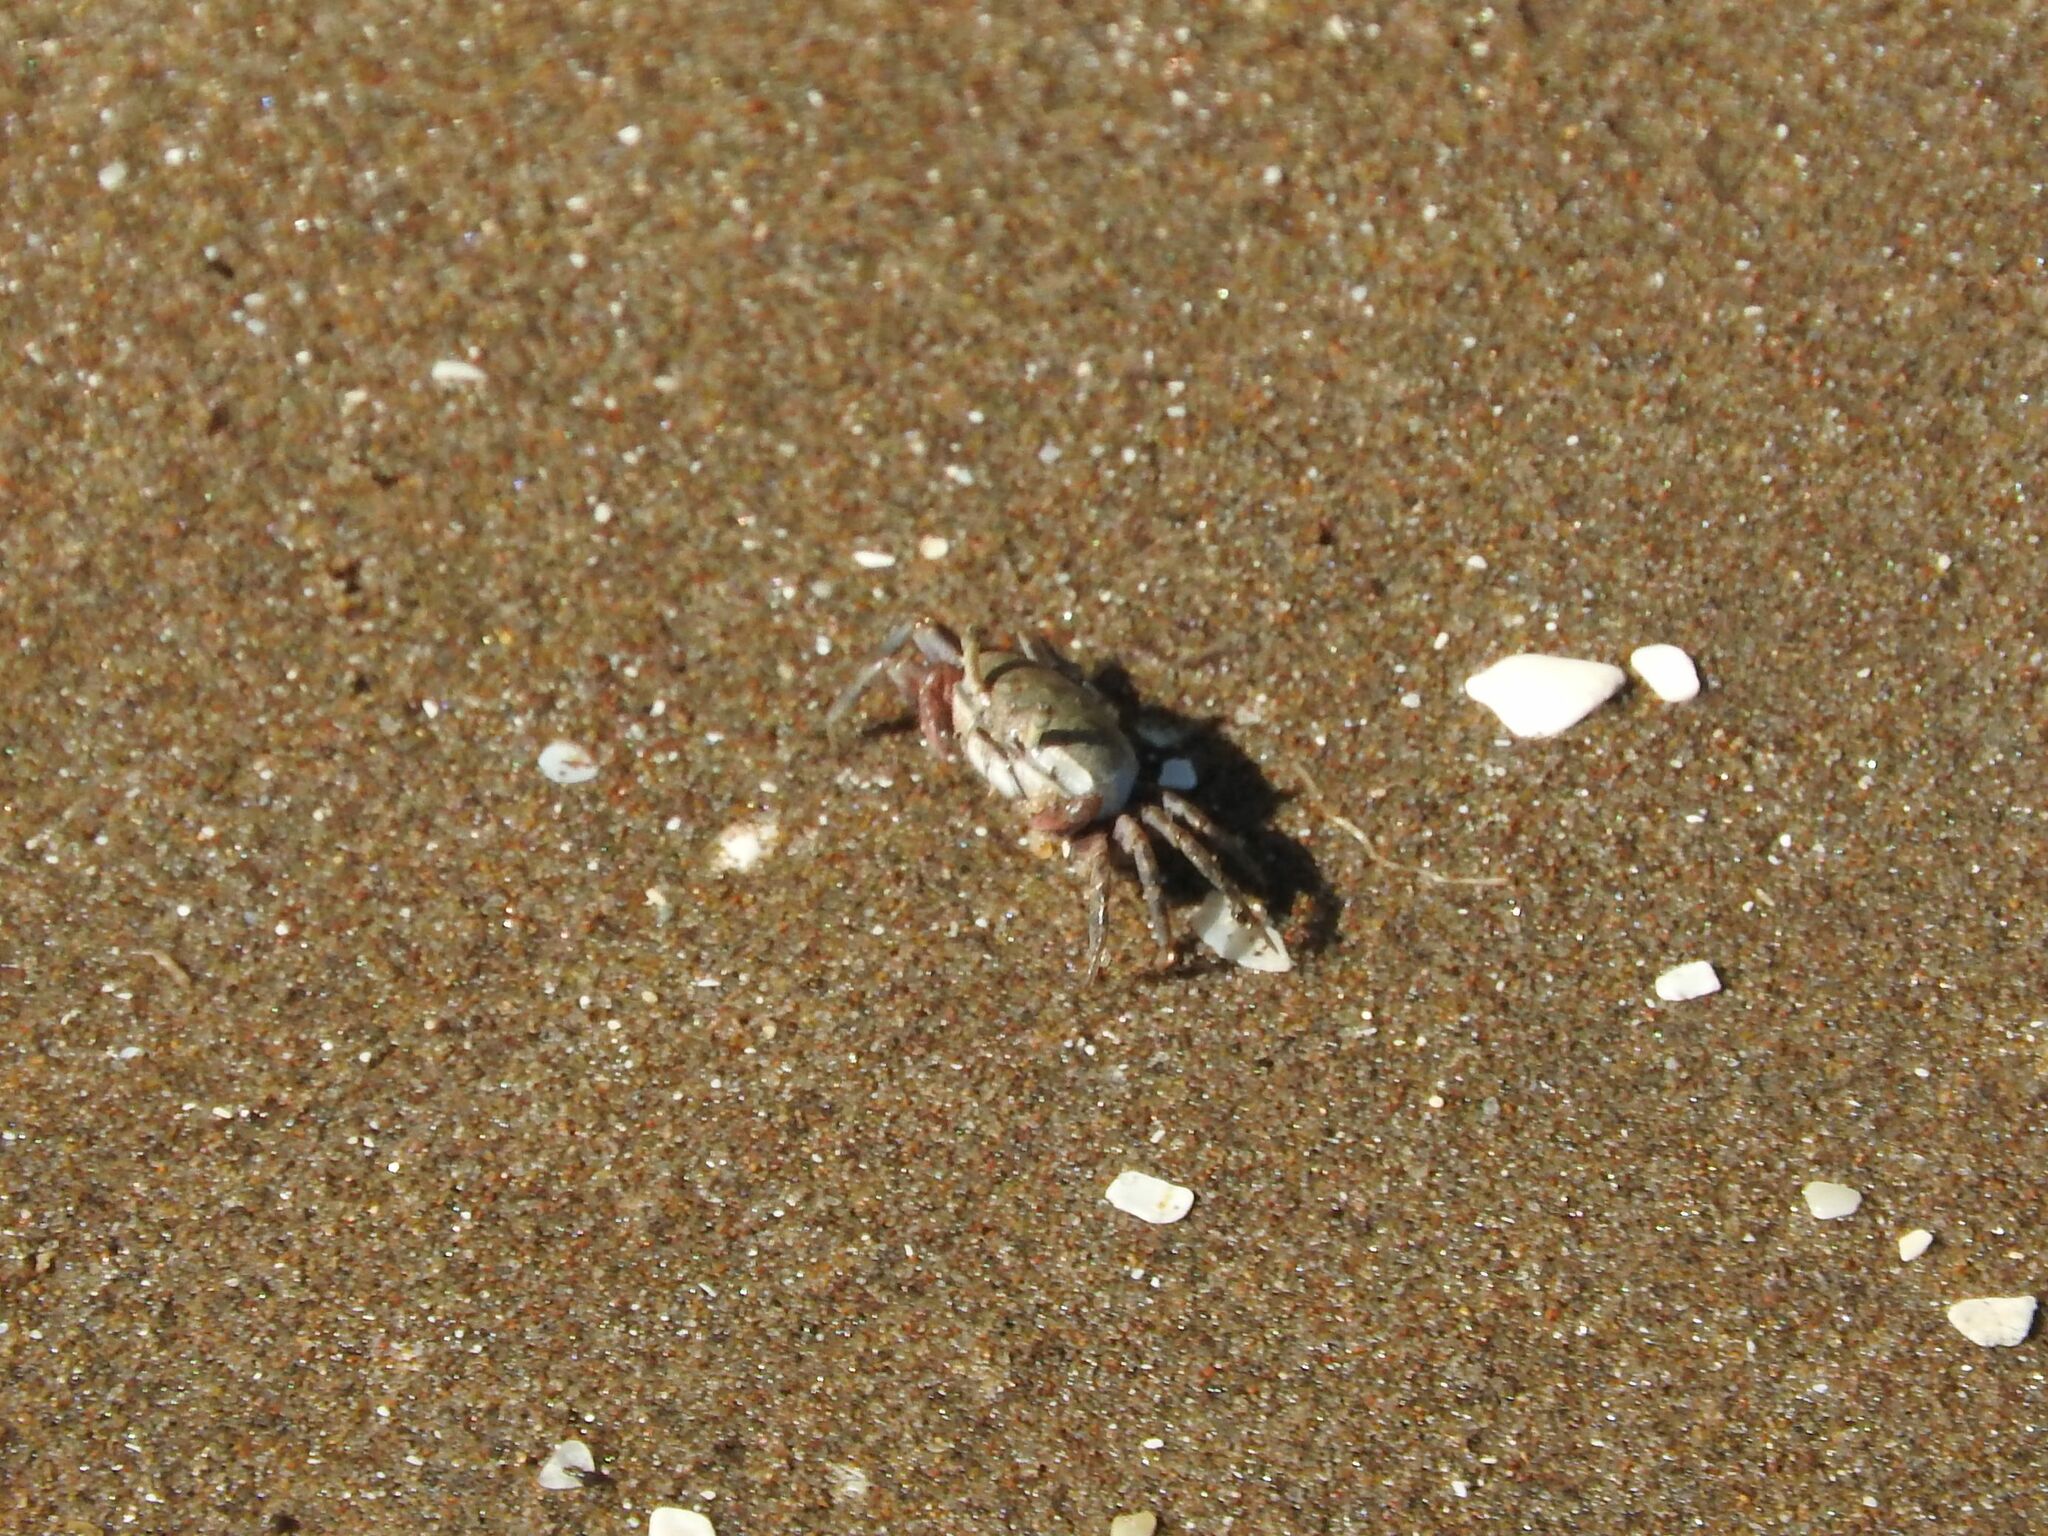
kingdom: Animalia
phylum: Arthropoda
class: Malacostraca
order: Decapoda
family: Varunidae
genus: Neohelice
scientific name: Neohelice granulata
